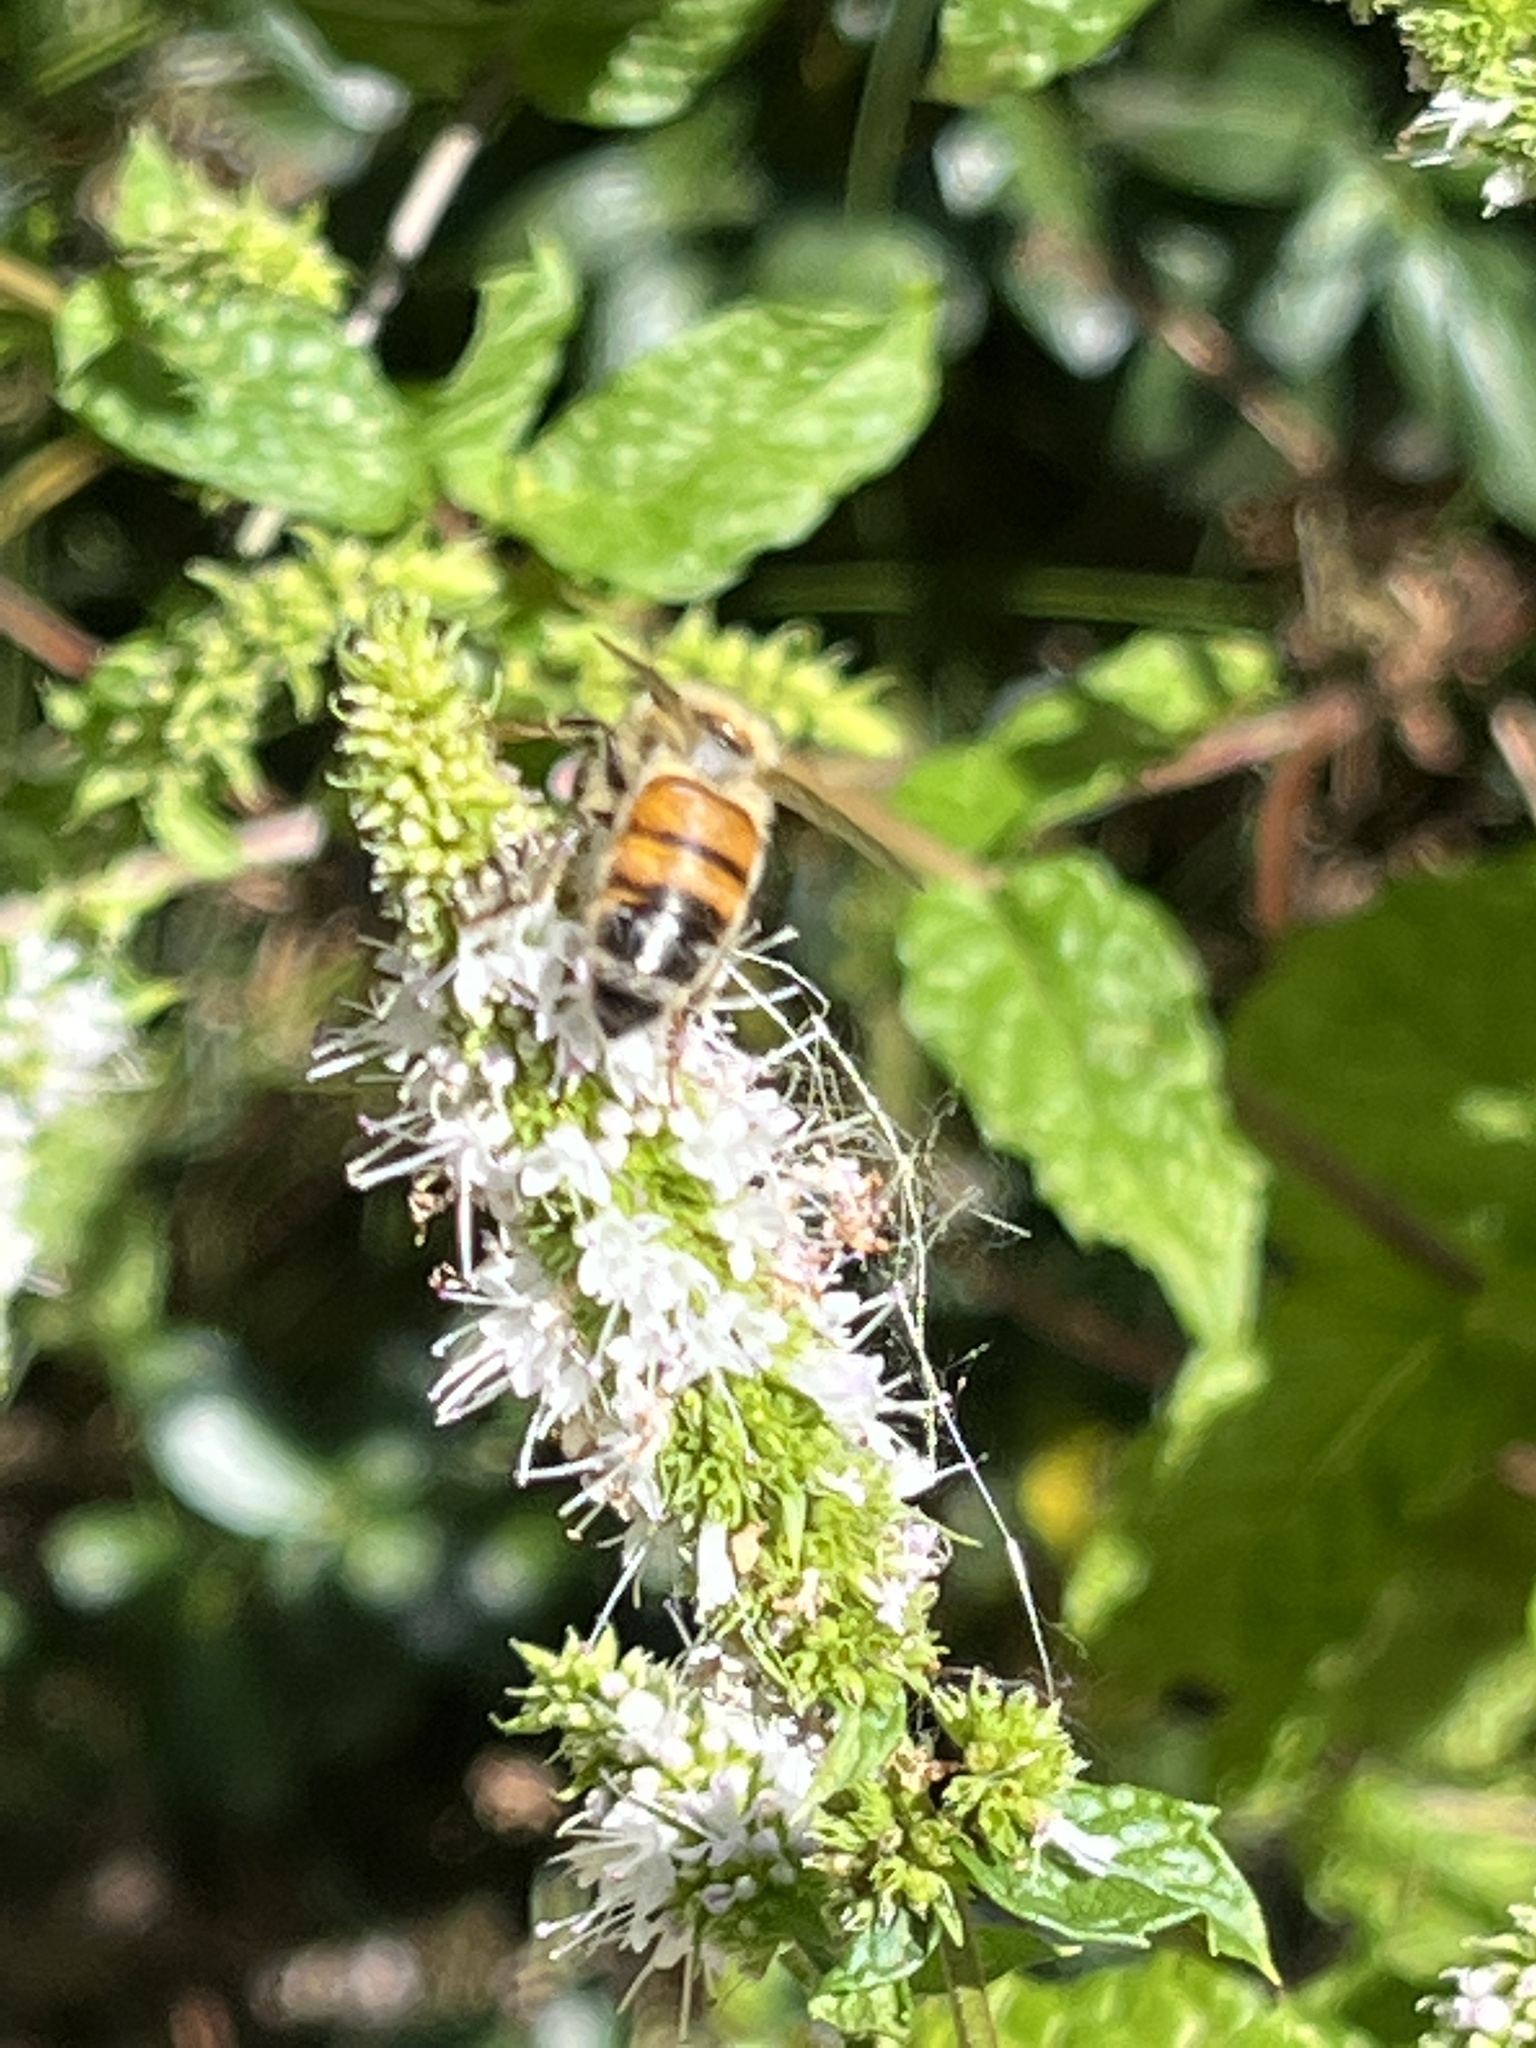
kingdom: Animalia
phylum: Arthropoda
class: Insecta
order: Hymenoptera
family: Apidae
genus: Apis
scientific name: Apis mellifera
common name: Honey bee
